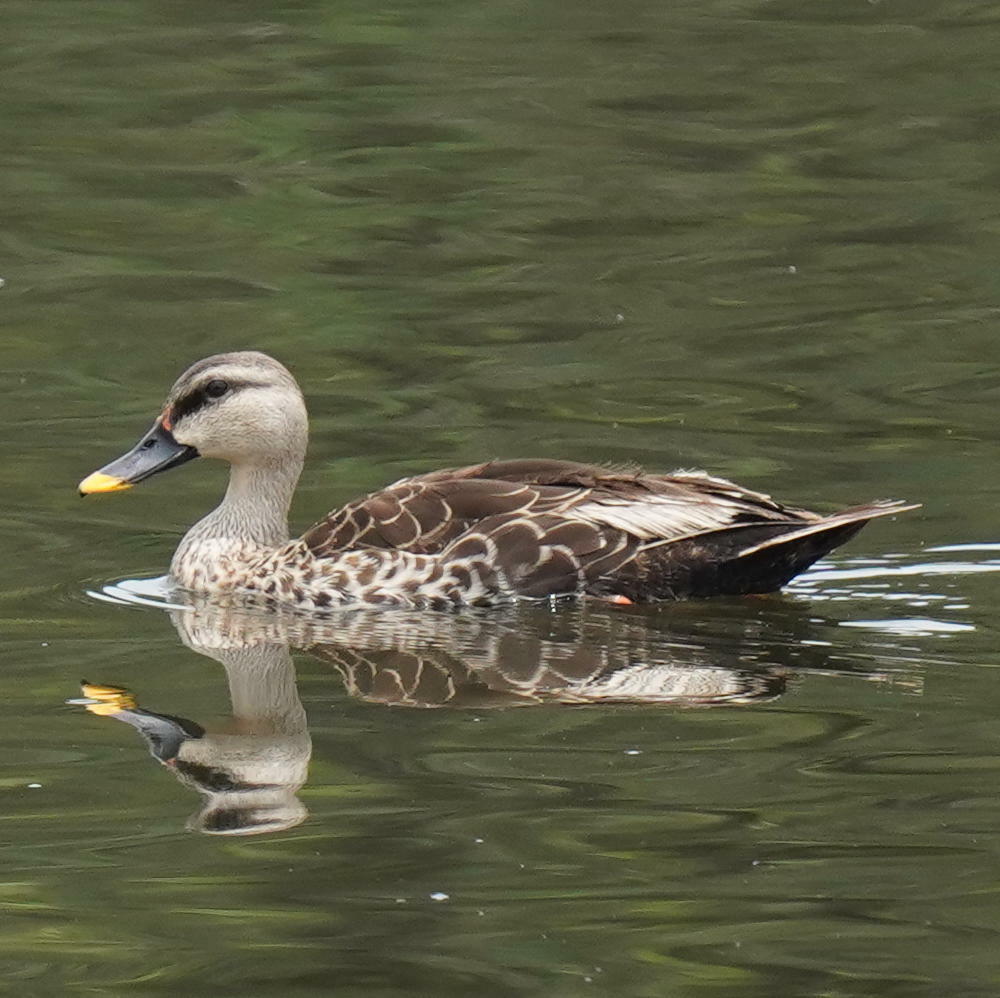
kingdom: Animalia
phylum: Chordata
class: Aves
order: Anseriformes
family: Anatidae
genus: Anas
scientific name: Anas poecilorhyncha
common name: Indian spot-billed duck
